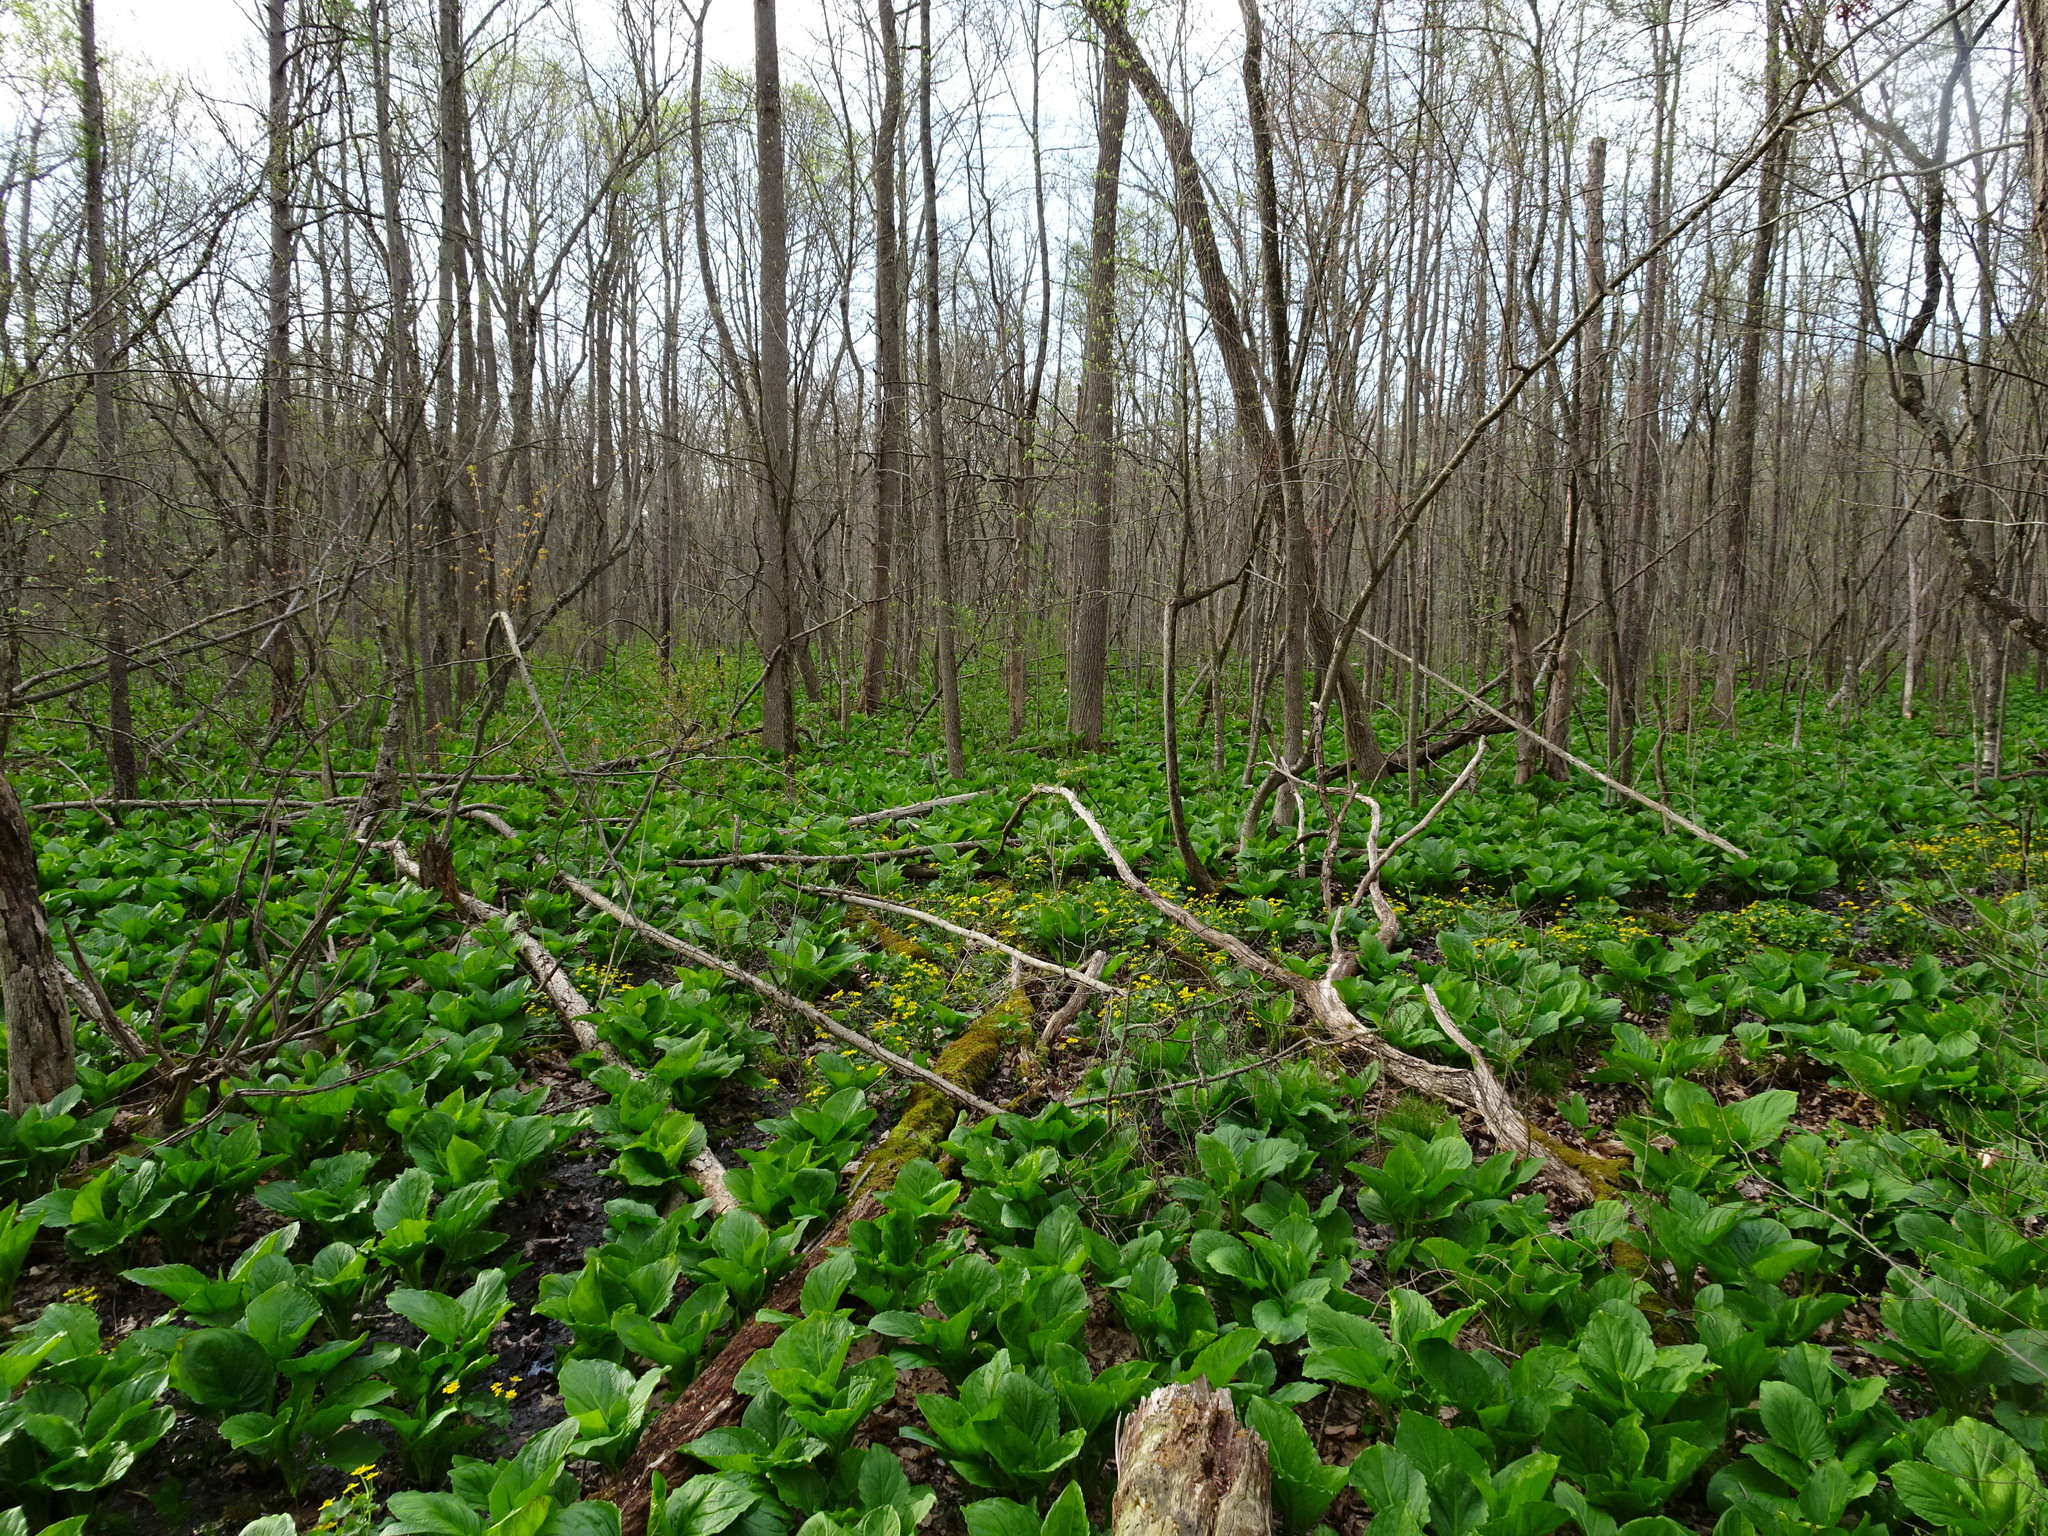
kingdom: Plantae
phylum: Tracheophyta
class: Liliopsida
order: Alismatales
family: Araceae
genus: Symplocarpus
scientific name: Symplocarpus foetidus
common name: Eastern skunk cabbage
